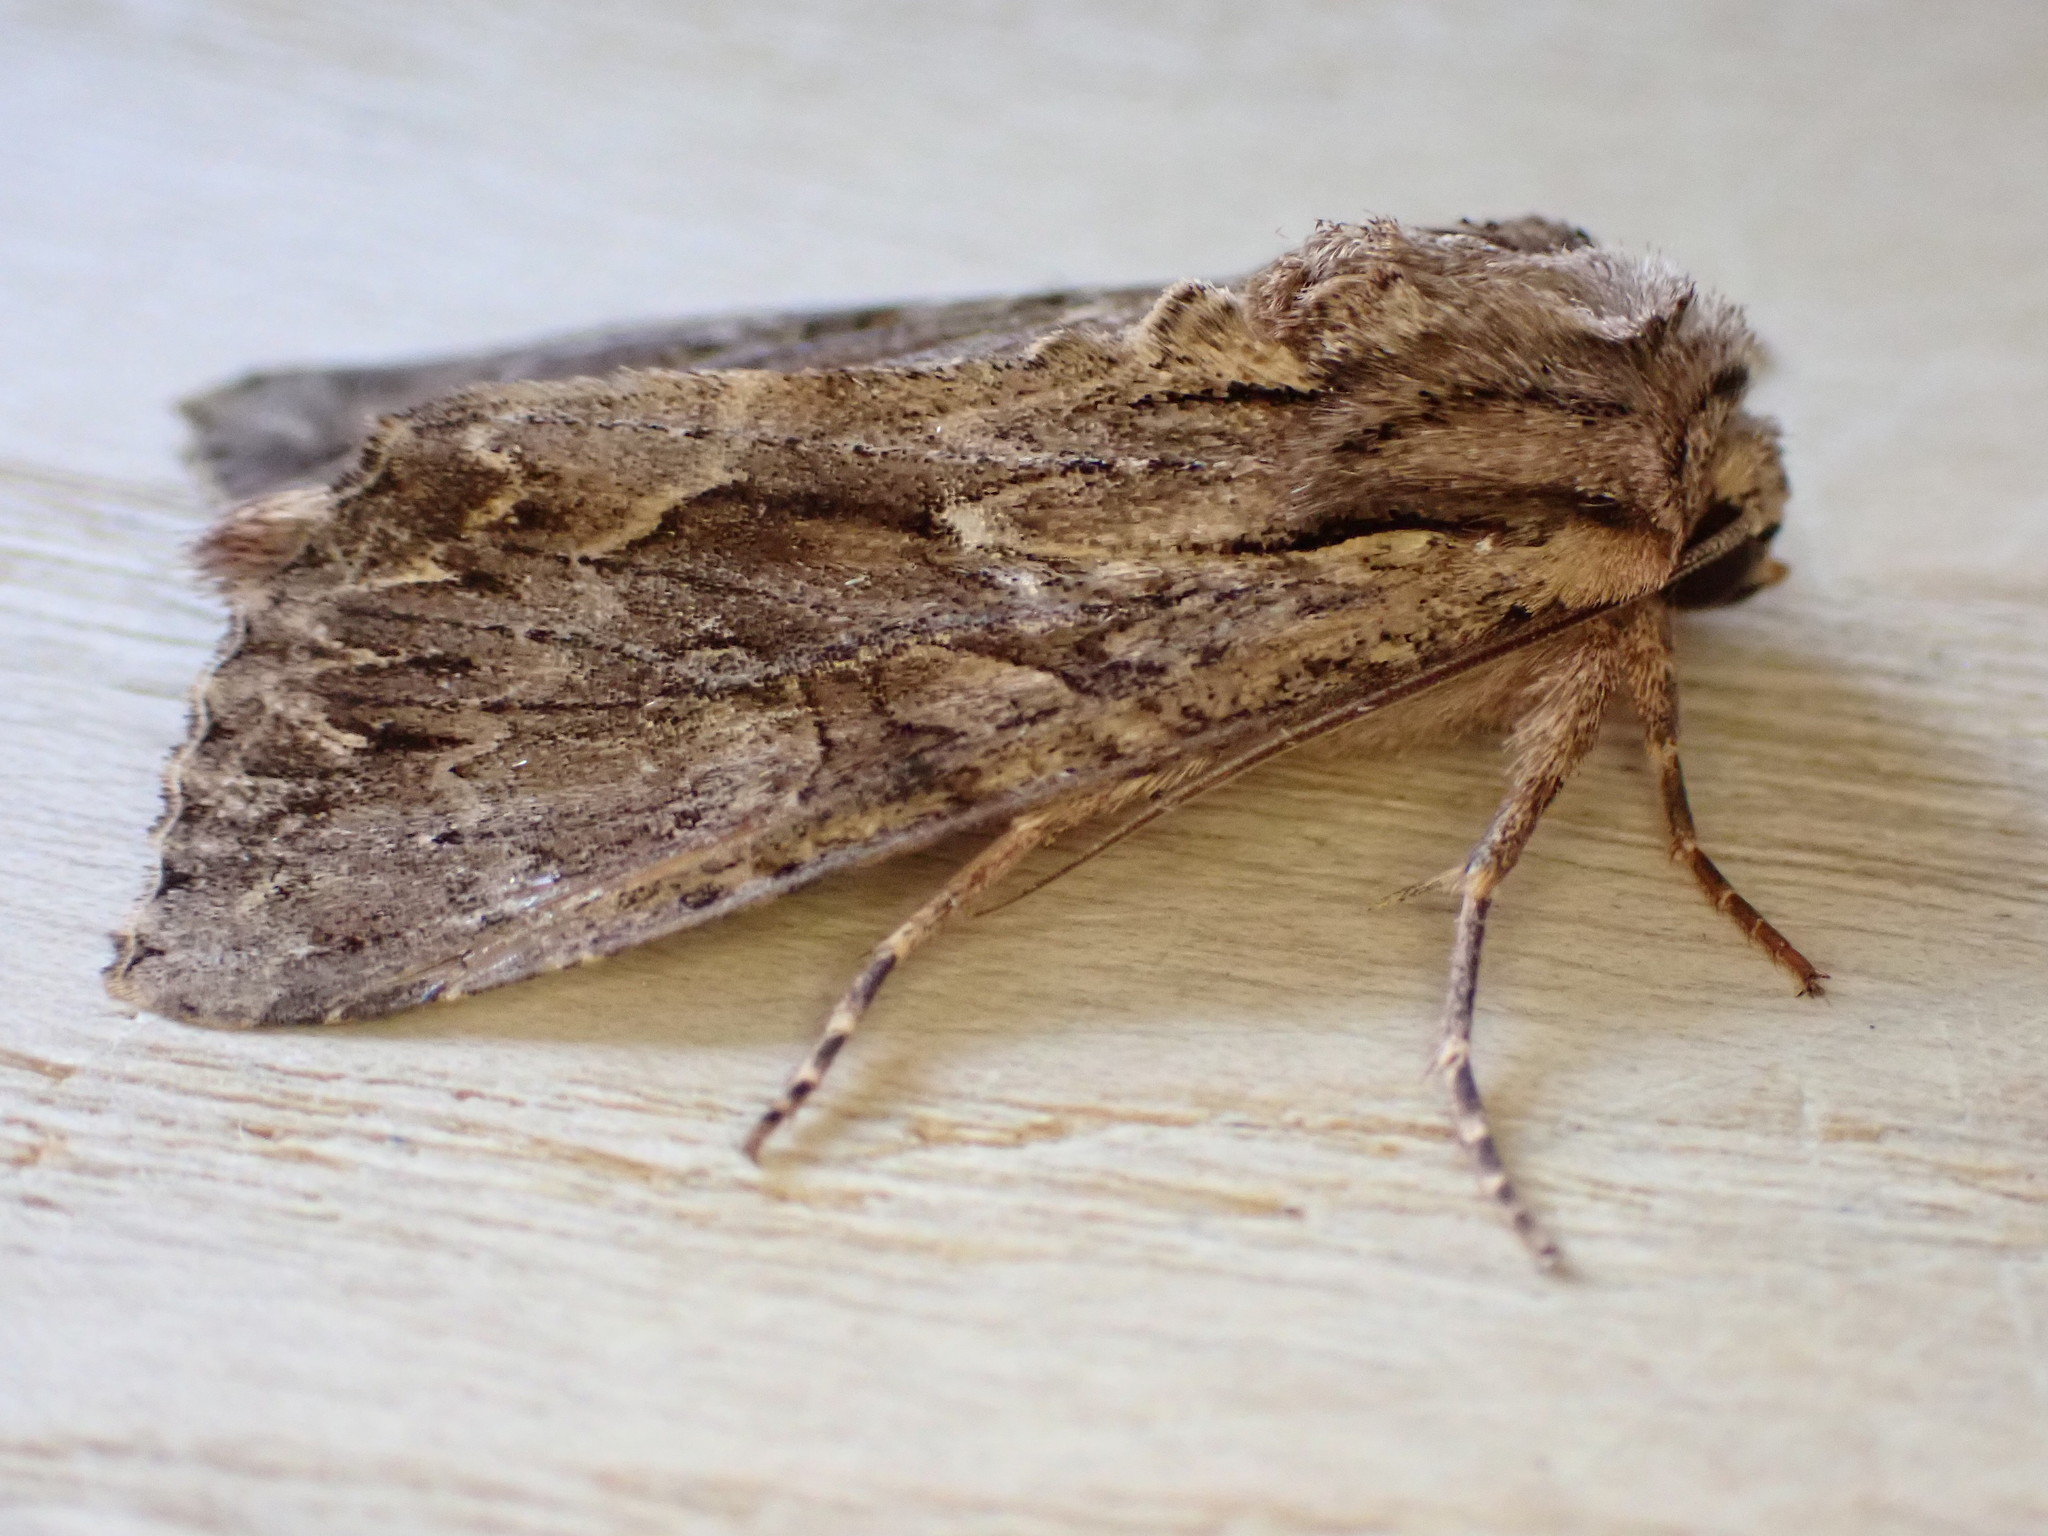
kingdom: Animalia
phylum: Arthropoda
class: Insecta
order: Lepidoptera
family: Noctuidae
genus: Apamea
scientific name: Apamea monoglypha
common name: Dark arches
